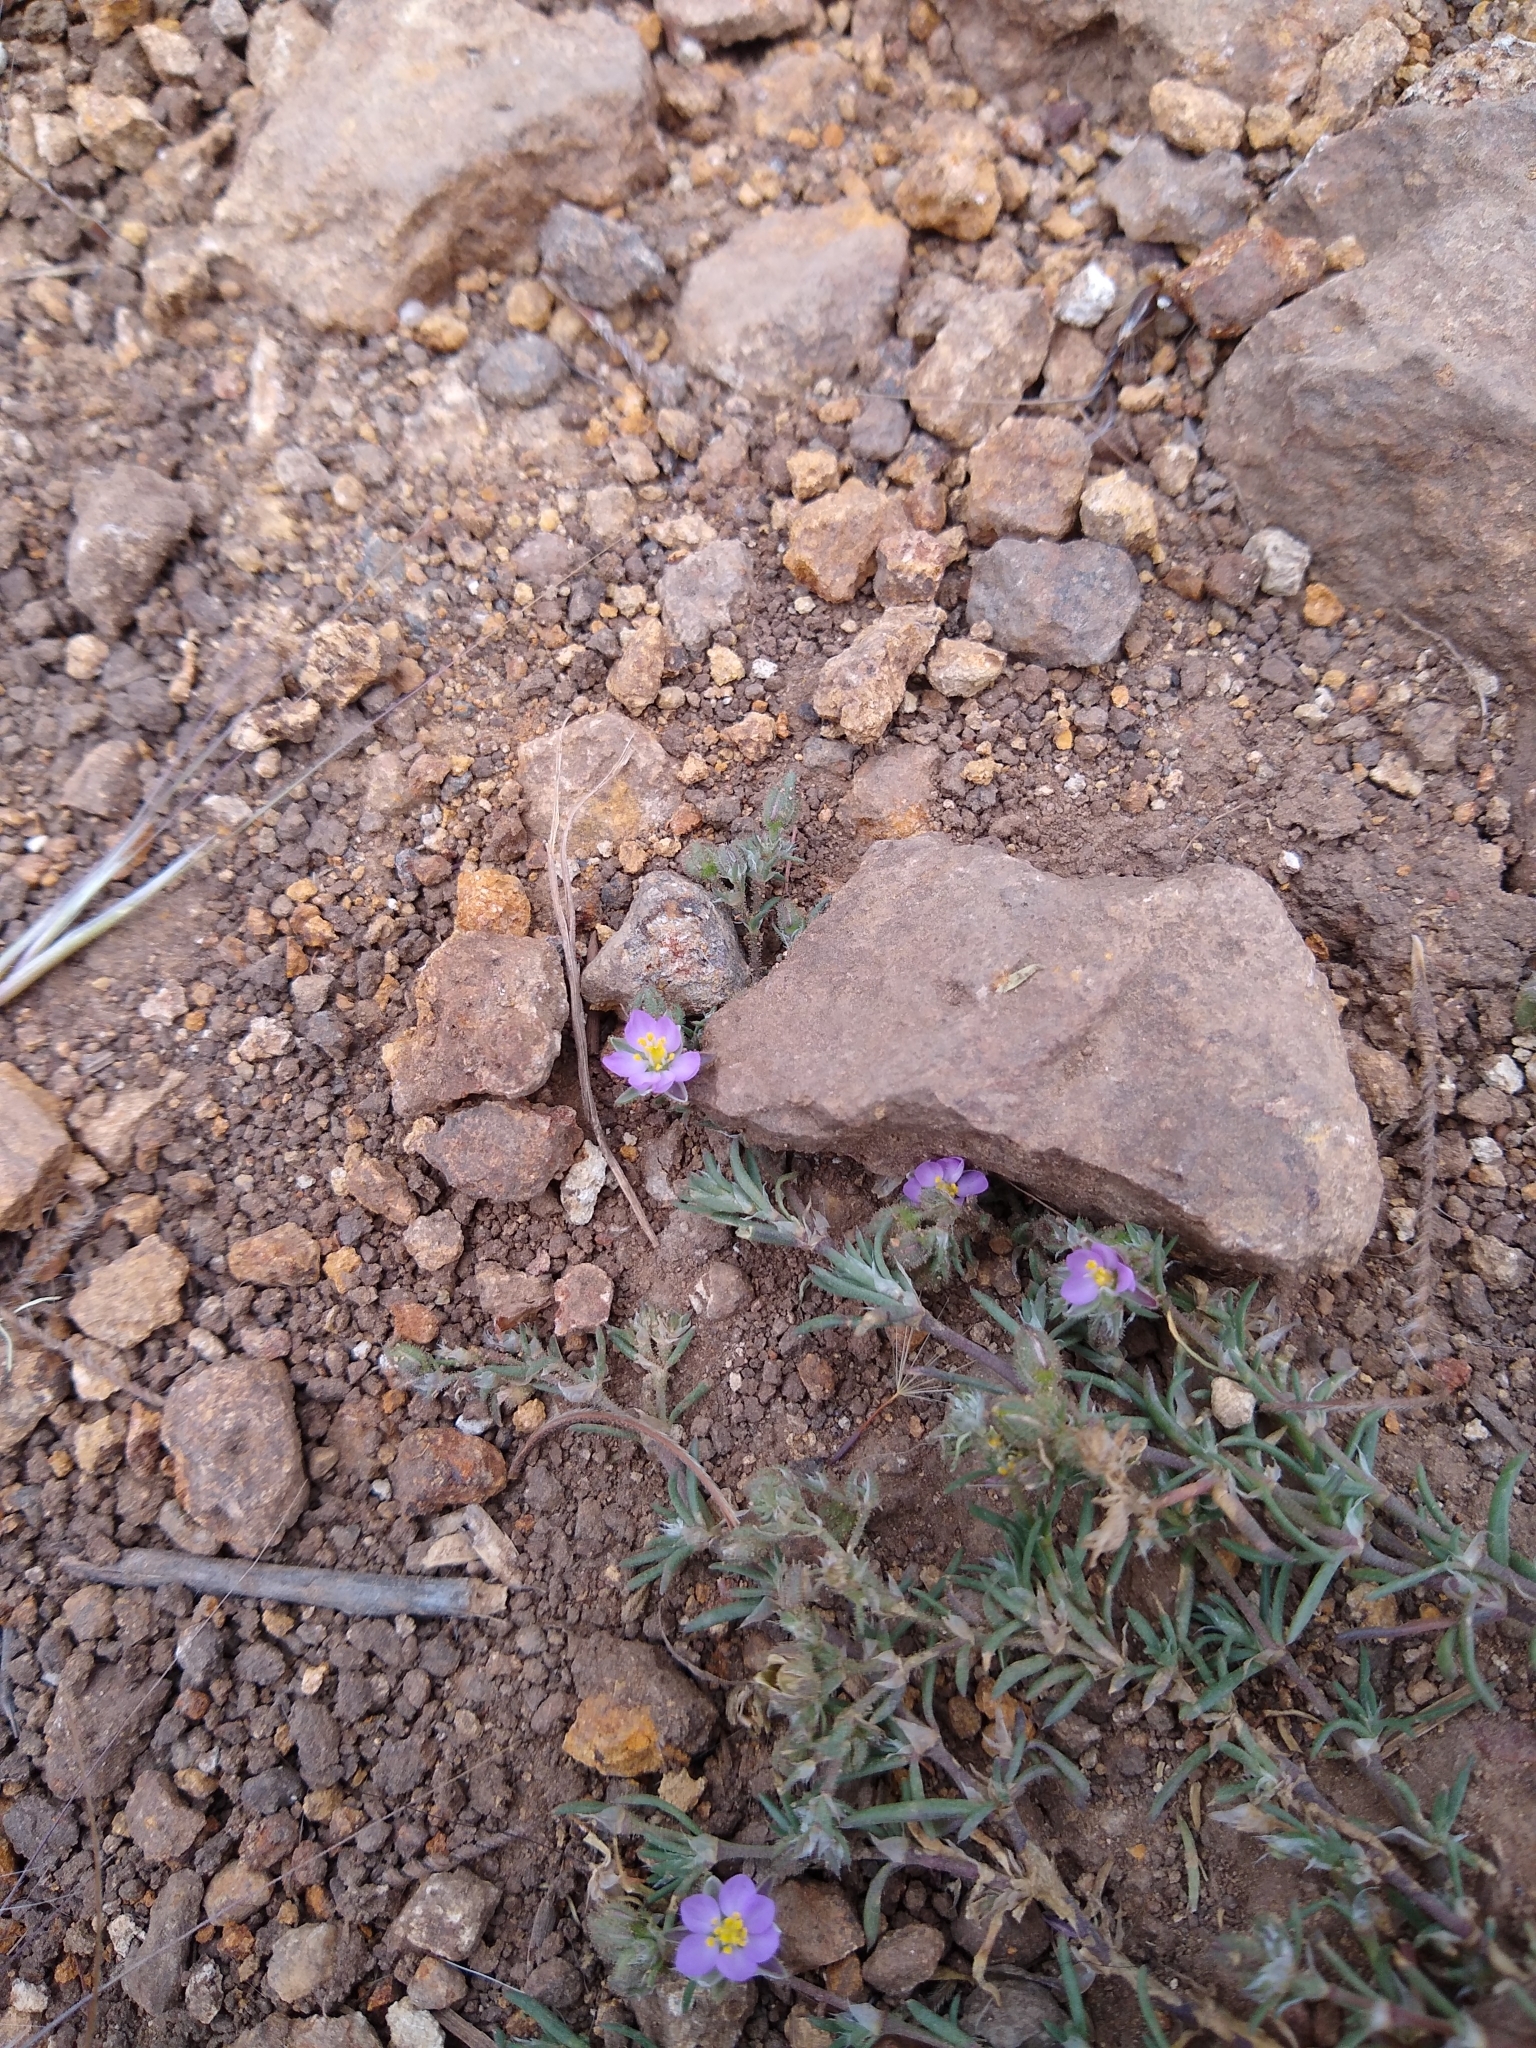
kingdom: Plantae
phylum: Tracheophyta
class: Magnoliopsida
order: Caryophyllales
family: Caryophyllaceae
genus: Spergularia
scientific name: Spergularia rubra
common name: Red sand-spurrey
